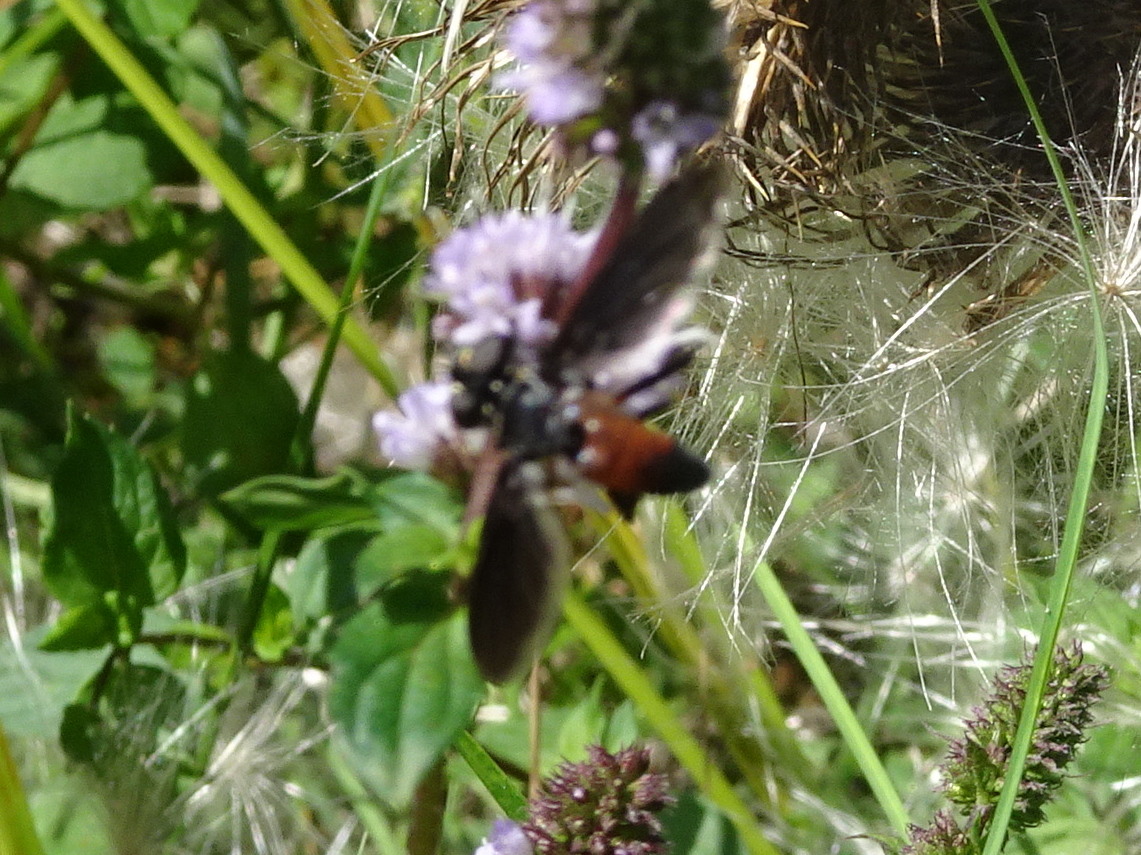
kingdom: Animalia
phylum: Arthropoda
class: Insecta
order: Diptera
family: Tachinidae
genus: Trichopoda
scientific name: Trichopoda pennipes
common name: Tachinid fly
